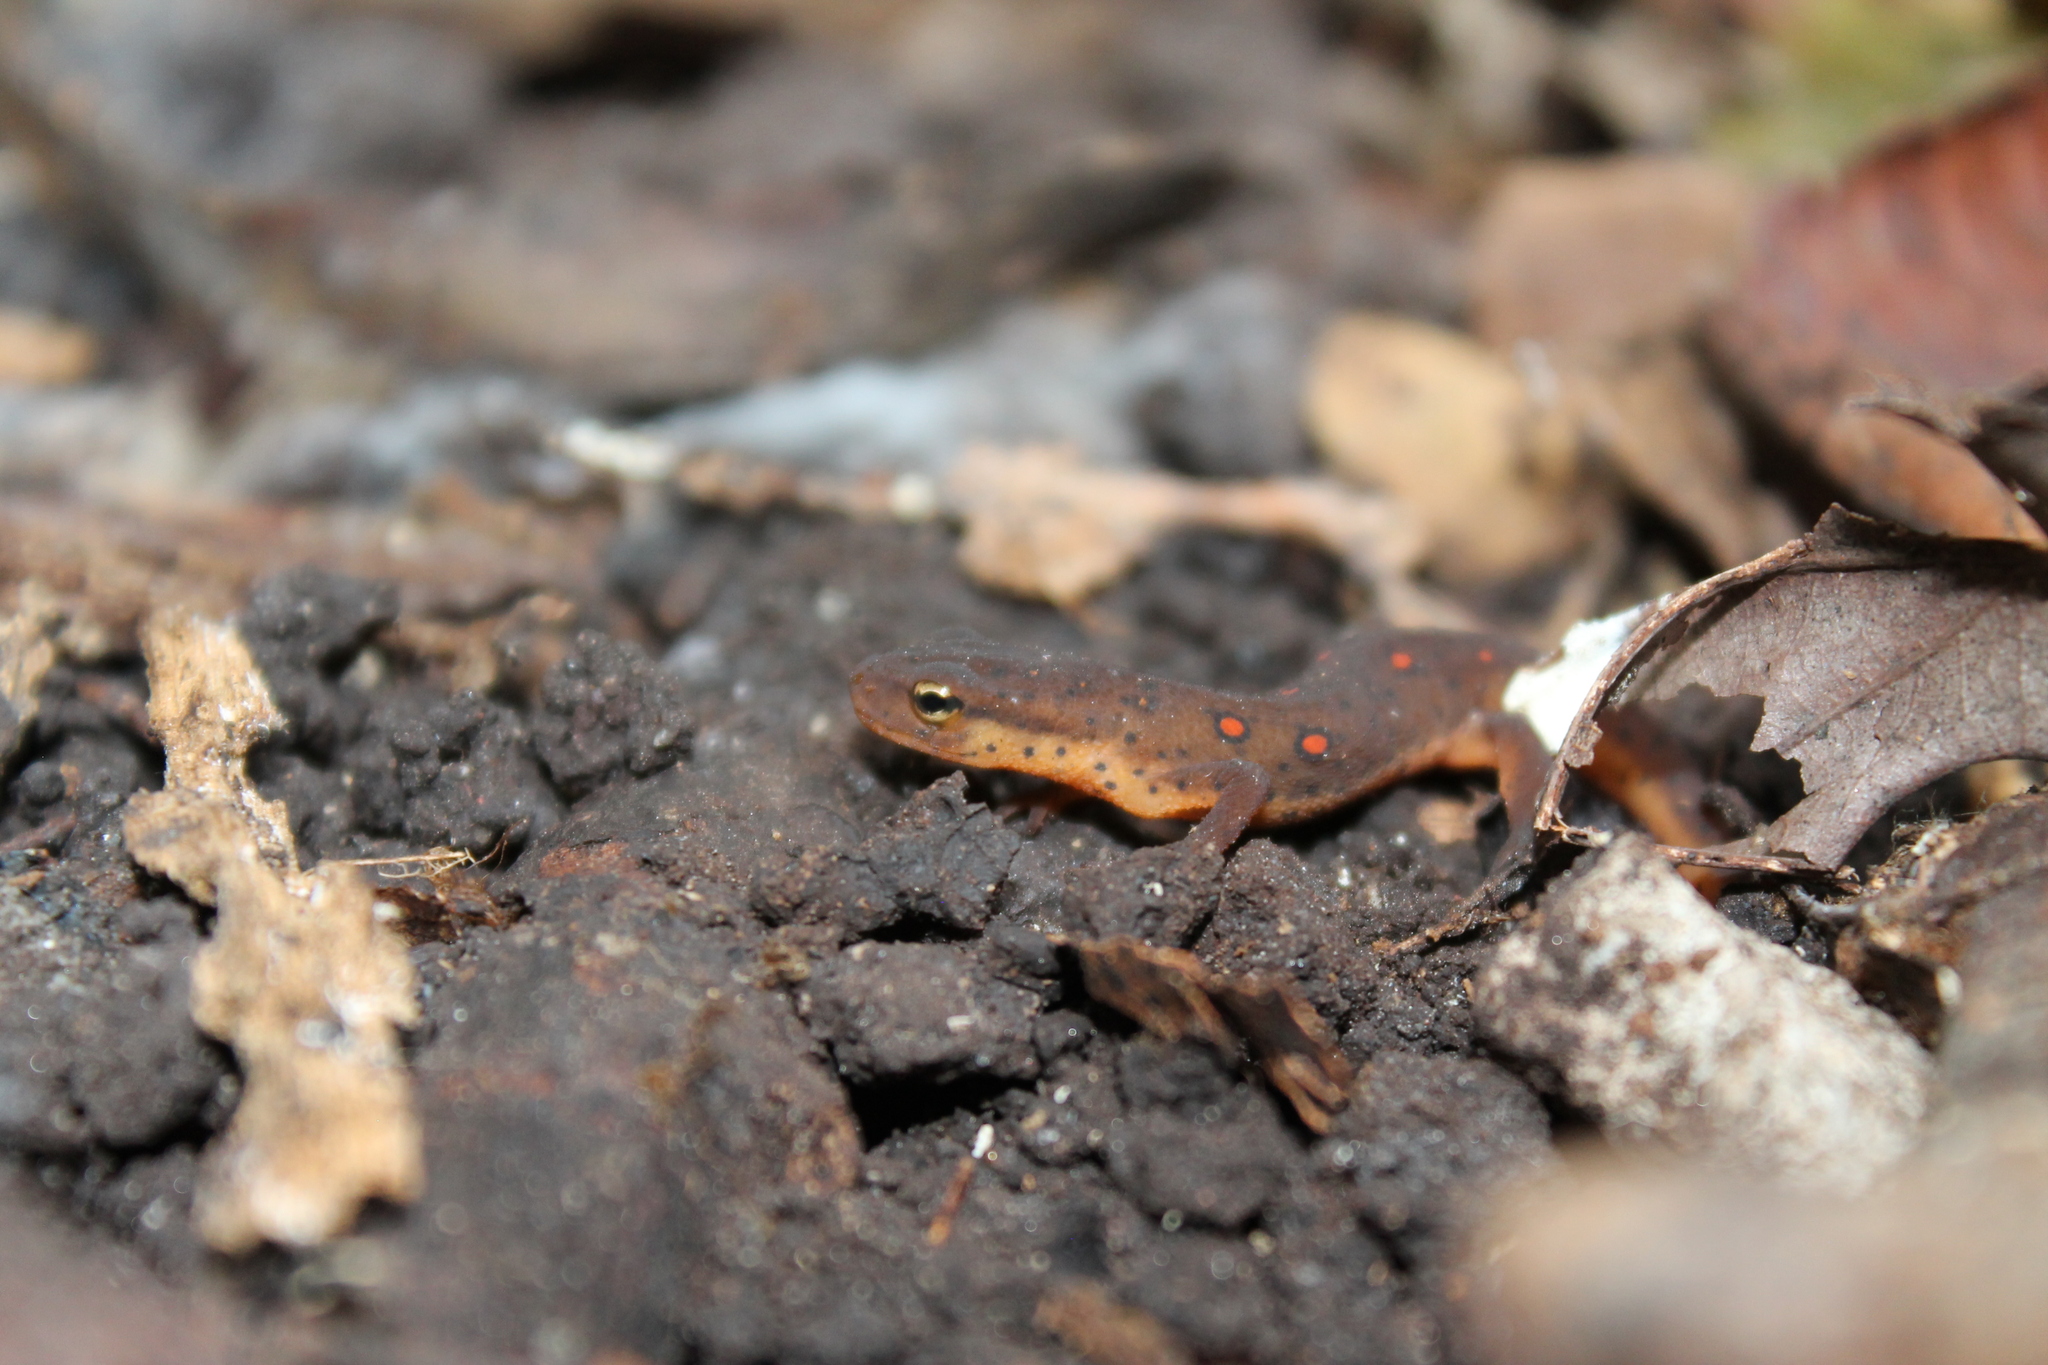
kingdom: Animalia
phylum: Chordata
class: Amphibia
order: Caudata
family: Salamandridae
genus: Notophthalmus
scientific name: Notophthalmus viridescens
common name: Eastern newt
